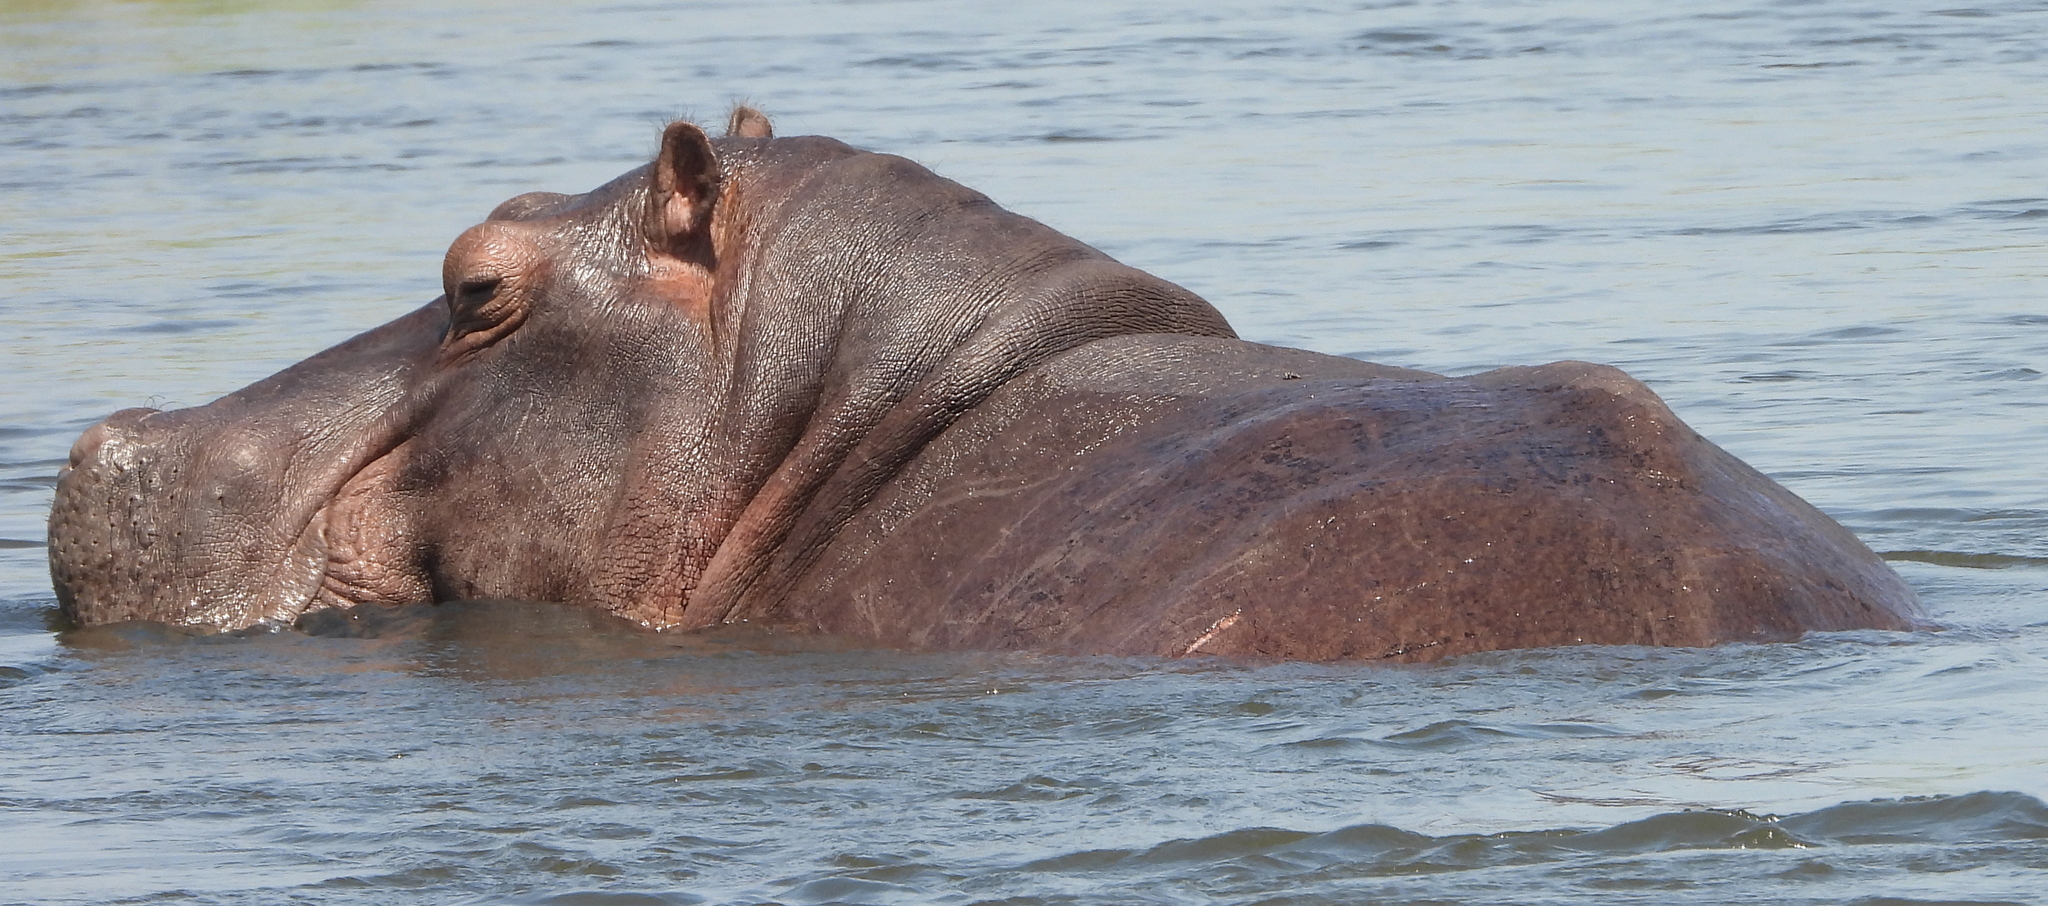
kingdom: Animalia
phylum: Chordata
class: Mammalia
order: Artiodactyla
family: Hippopotamidae
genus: Hippopotamus
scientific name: Hippopotamus amphibius
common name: Common hippopotamus
